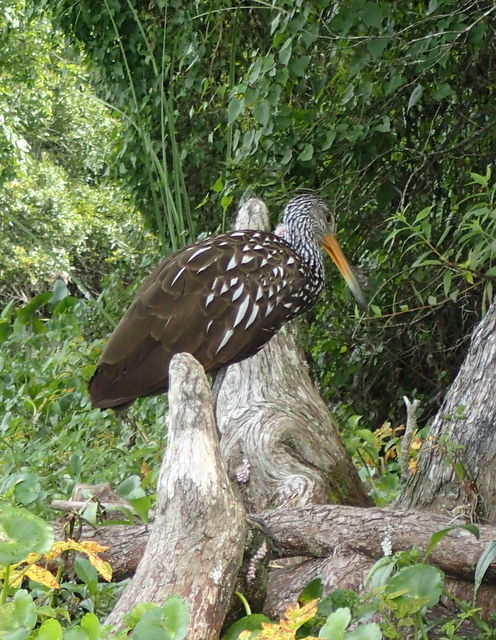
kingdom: Animalia
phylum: Chordata
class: Aves
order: Gruiformes
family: Aramidae
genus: Aramus
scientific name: Aramus guarauna
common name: Limpkin
